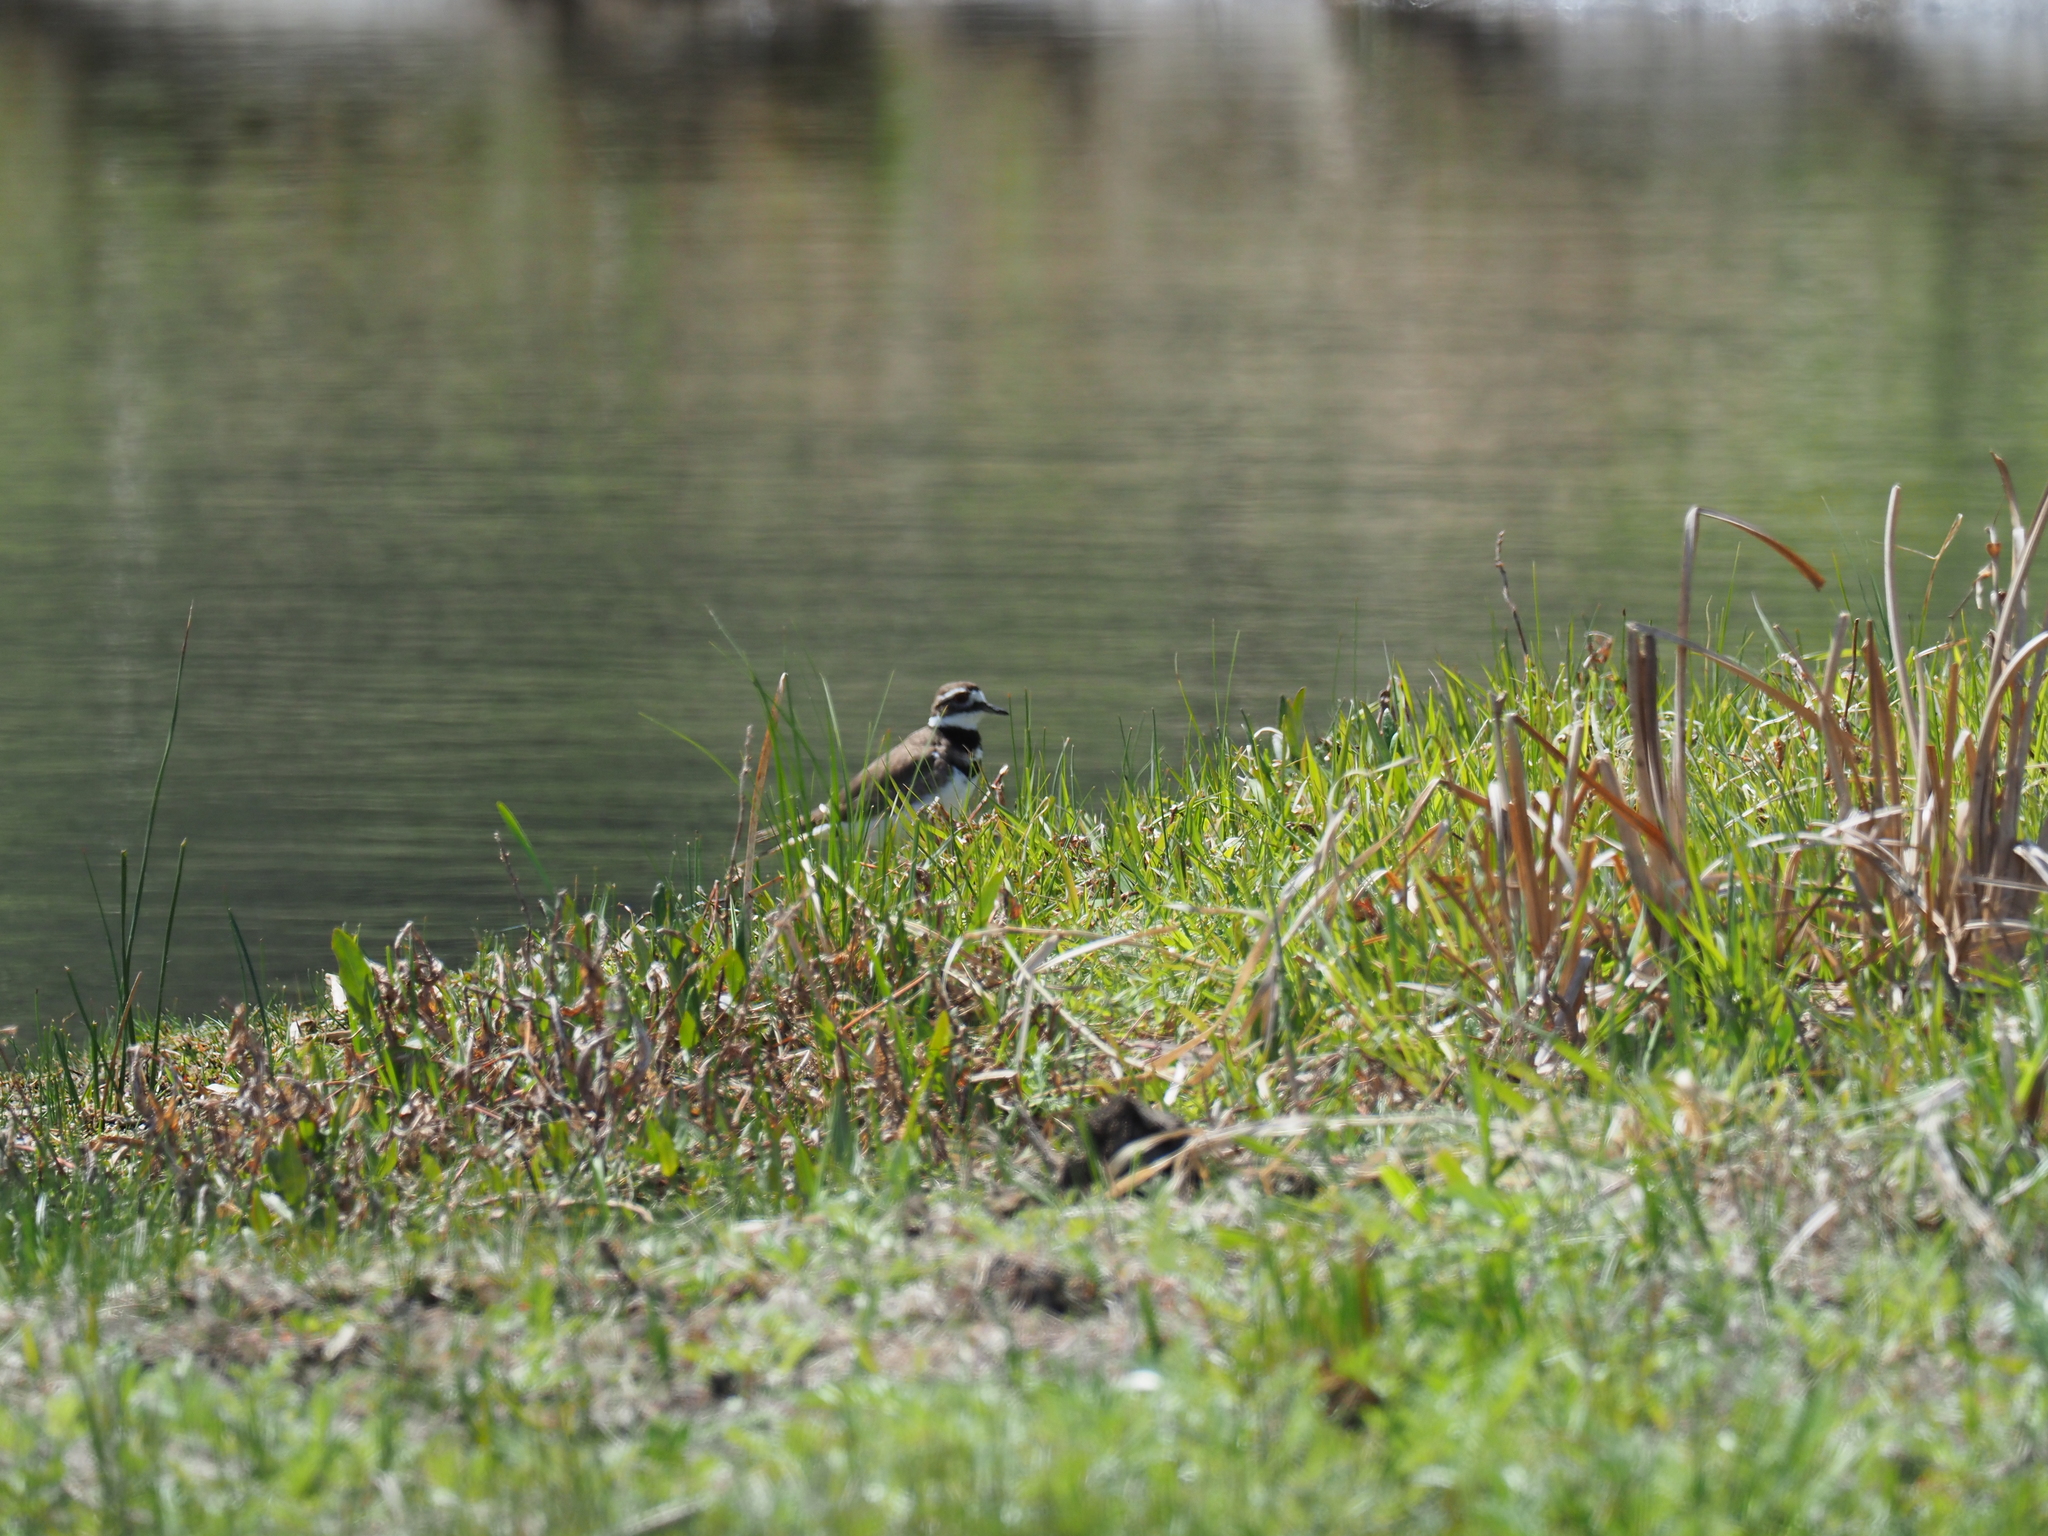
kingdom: Animalia
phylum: Chordata
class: Aves
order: Charadriiformes
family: Charadriidae
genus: Charadrius
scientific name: Charadrius vociferus
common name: Killdeer
